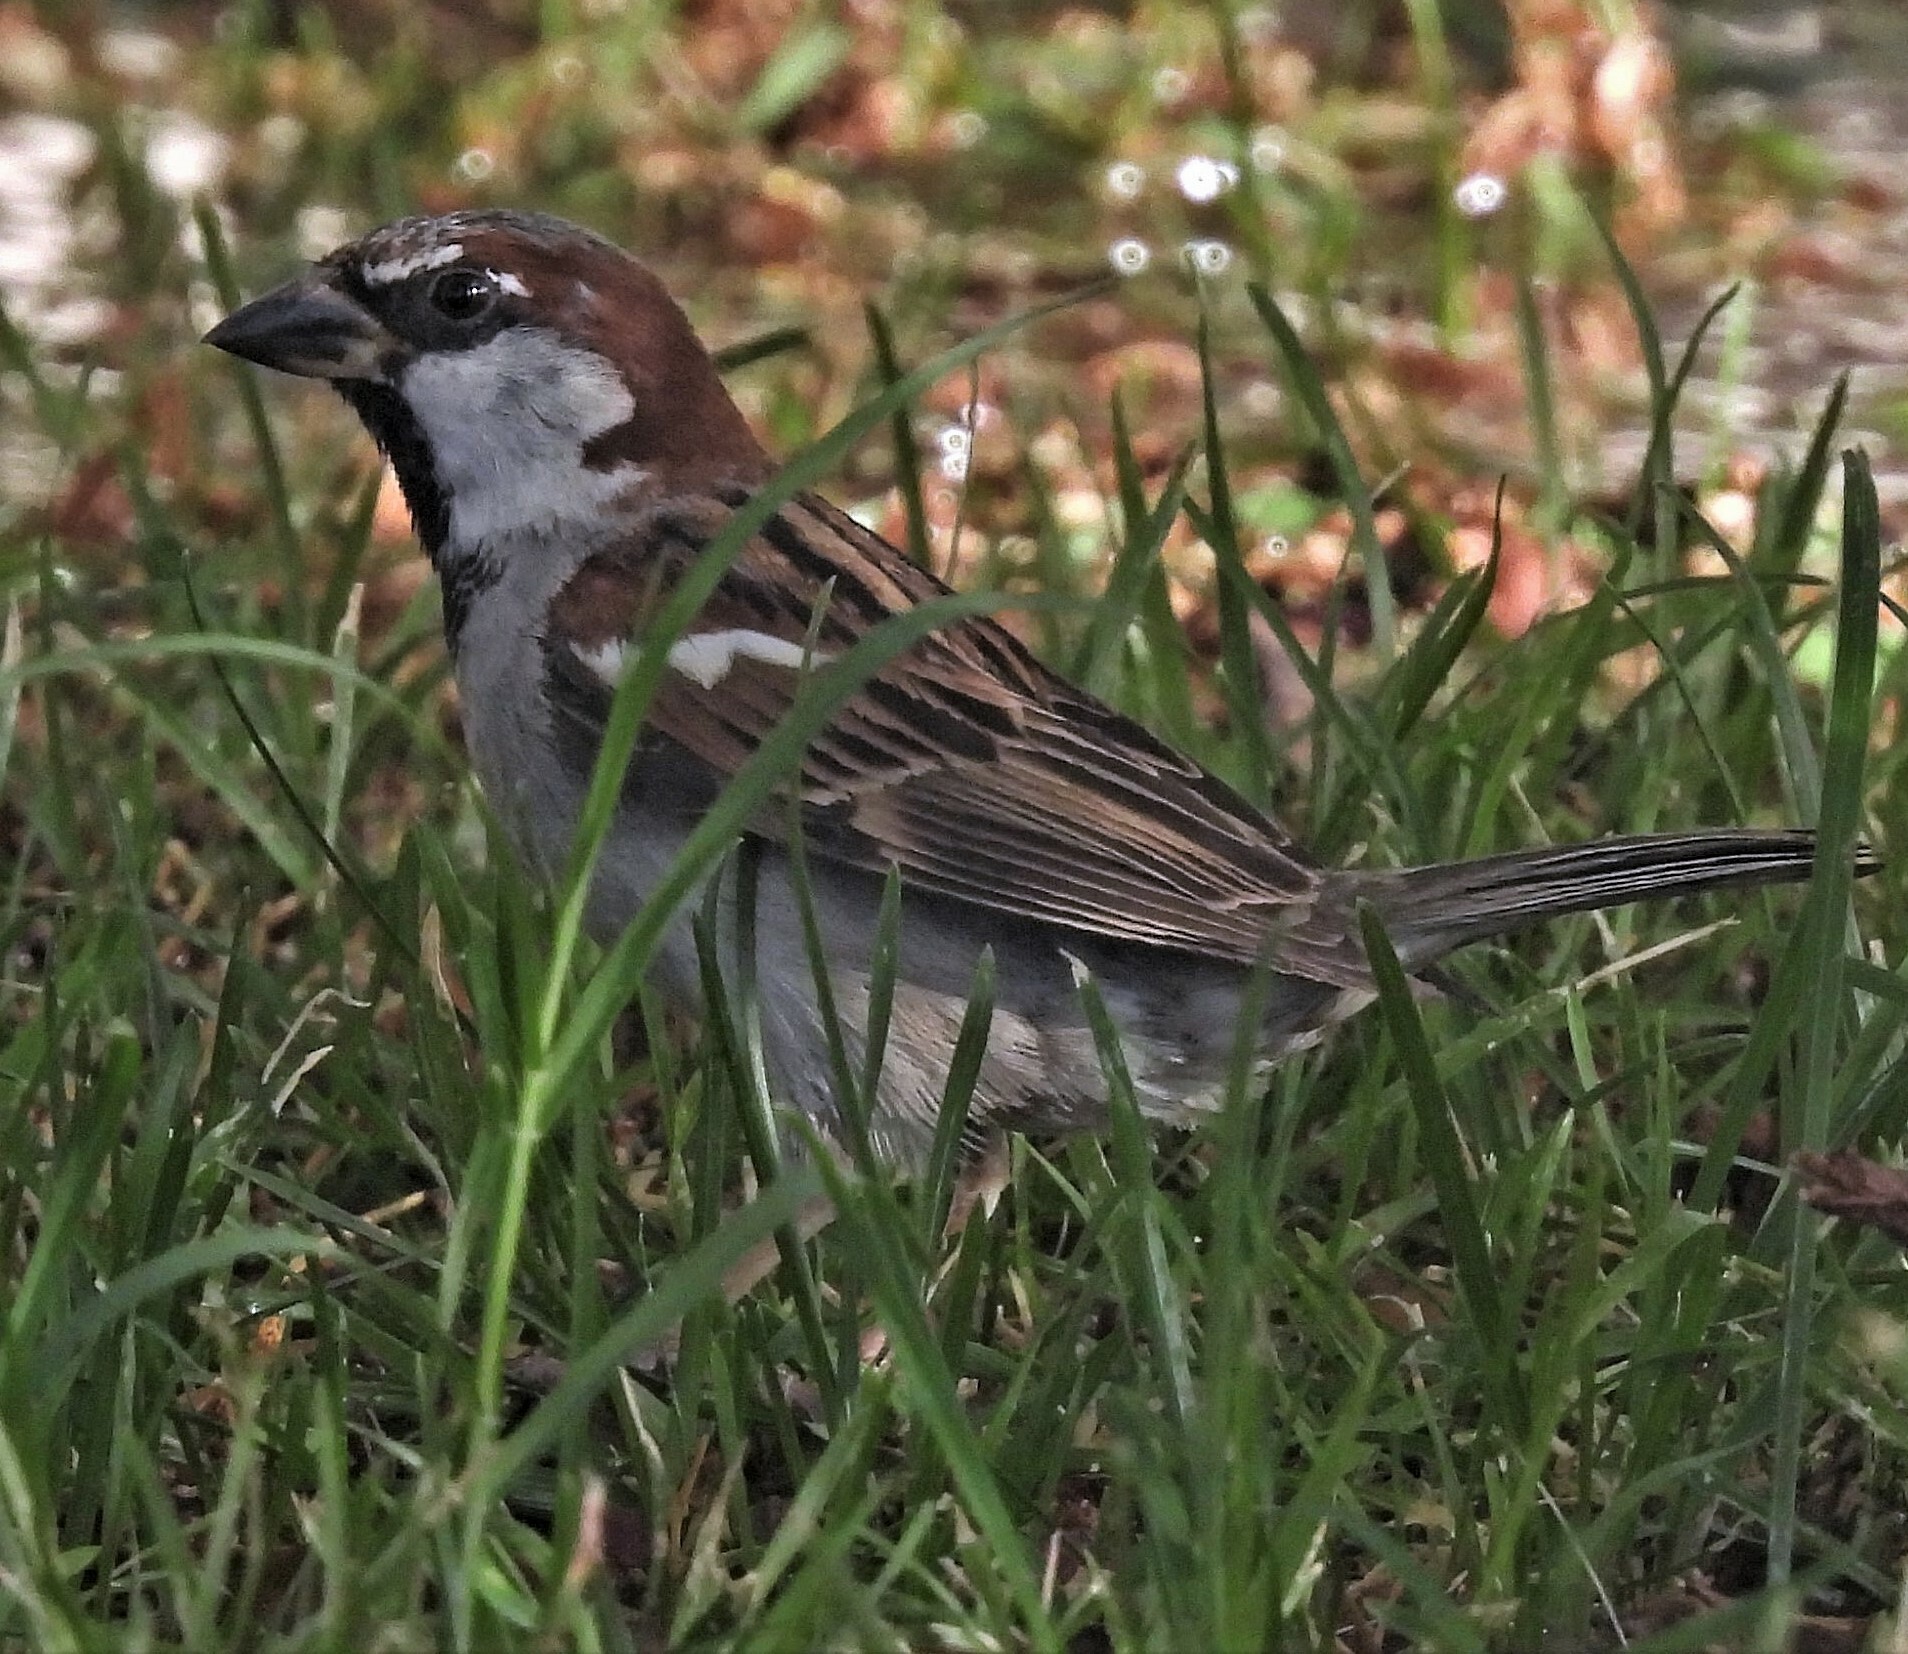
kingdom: Animalia
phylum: Chordata
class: Aves
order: Passeriformes
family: Passeridae
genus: Passer
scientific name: Passer domesticus
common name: House sparrow
